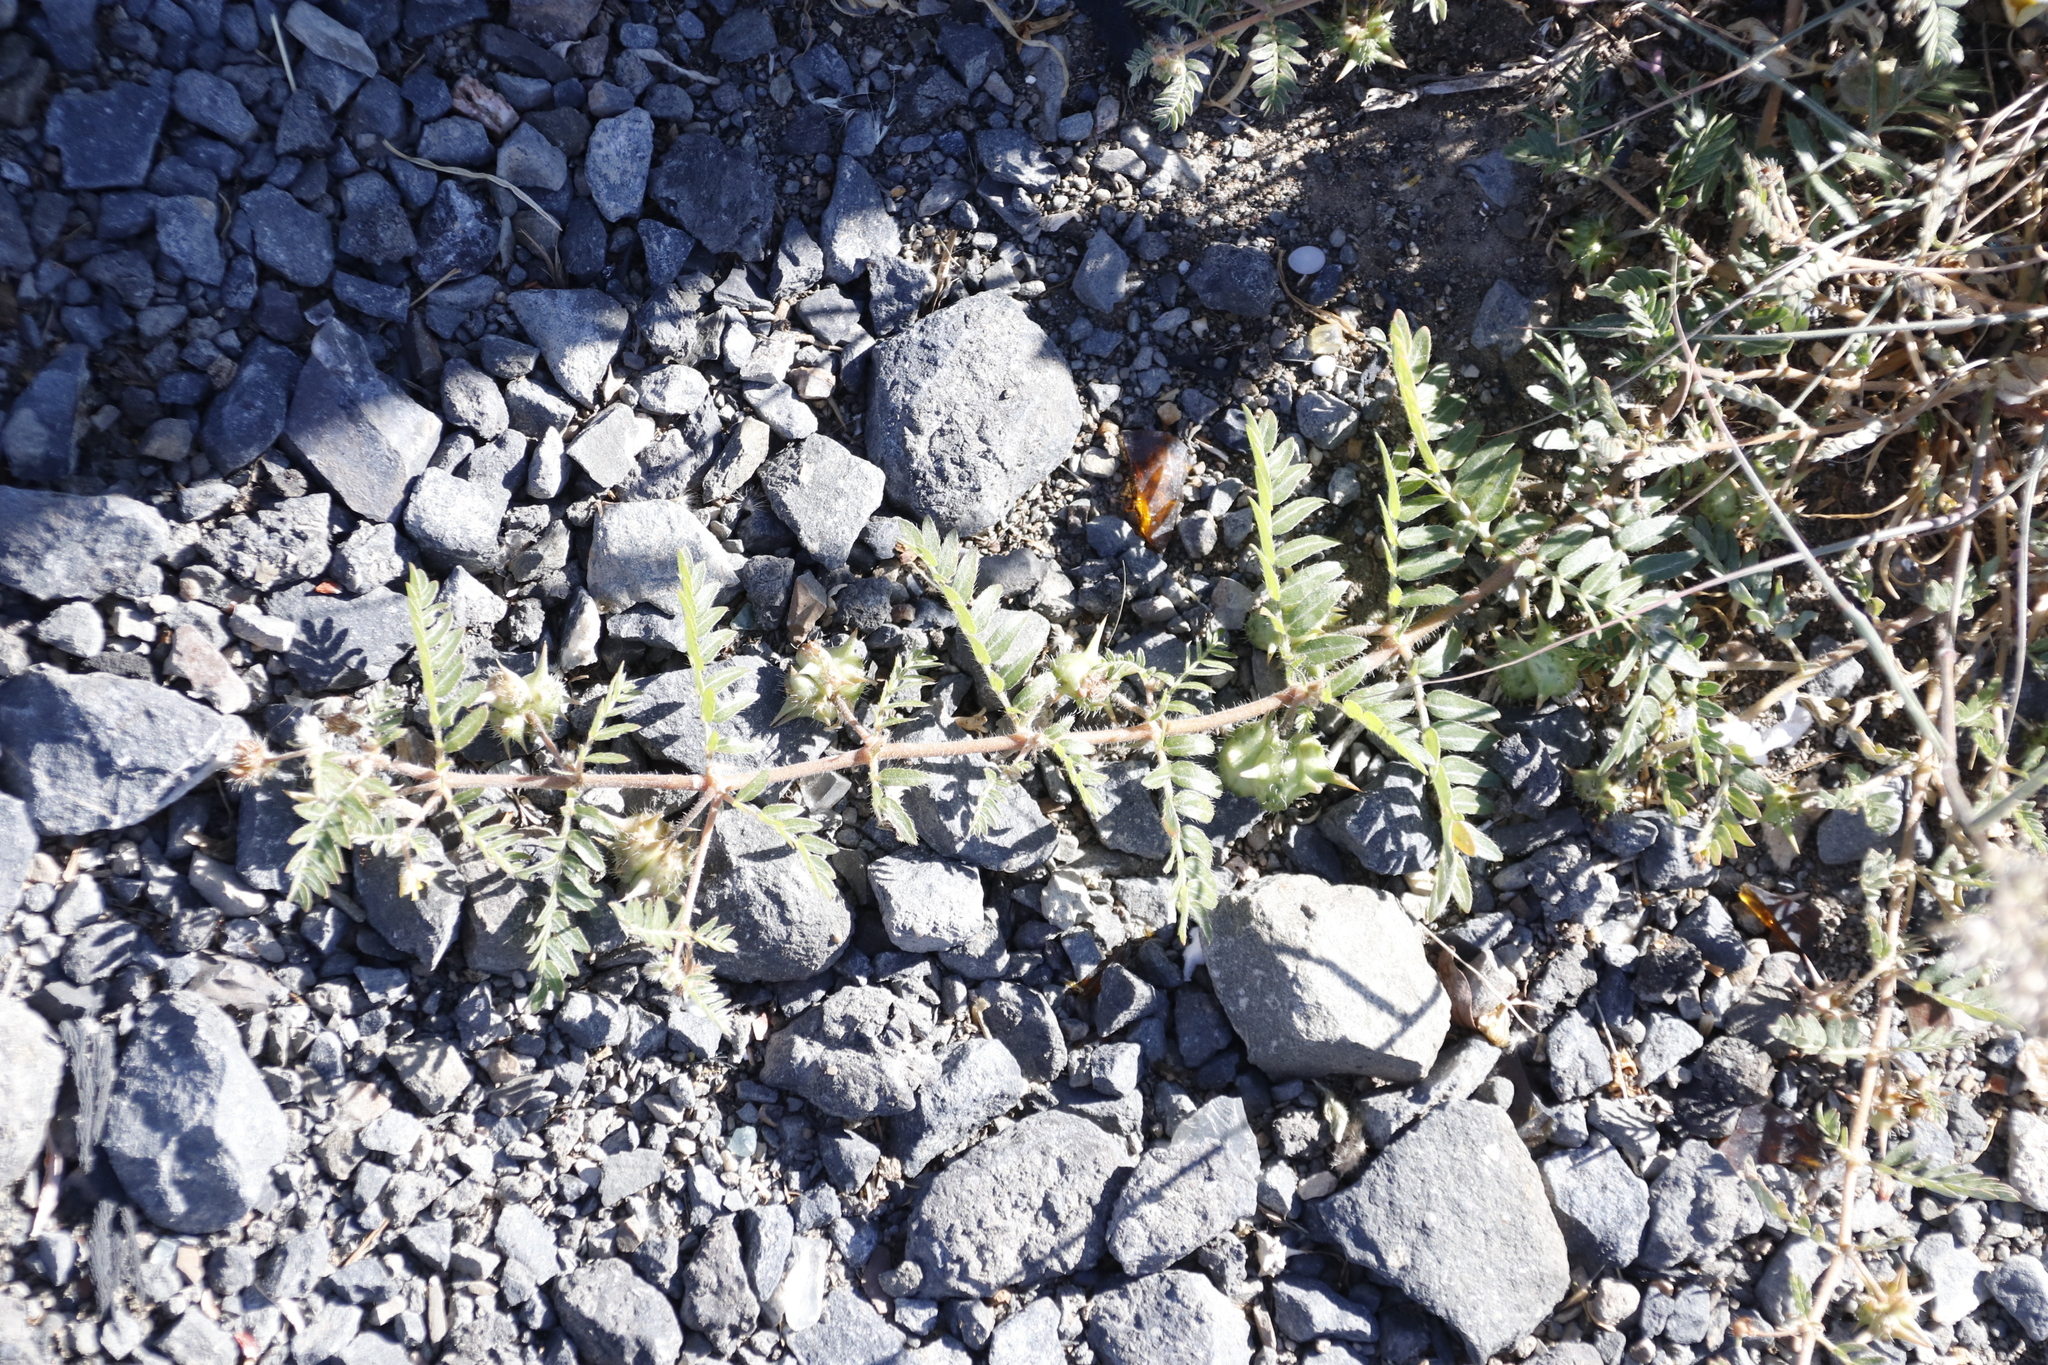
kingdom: Plantae
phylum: Tracheophyta
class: Magnoliopsida
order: Zygophyllales
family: Zygophyllaceae
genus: Tribulus
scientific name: Tribulus terrestris
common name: Puncturevine
